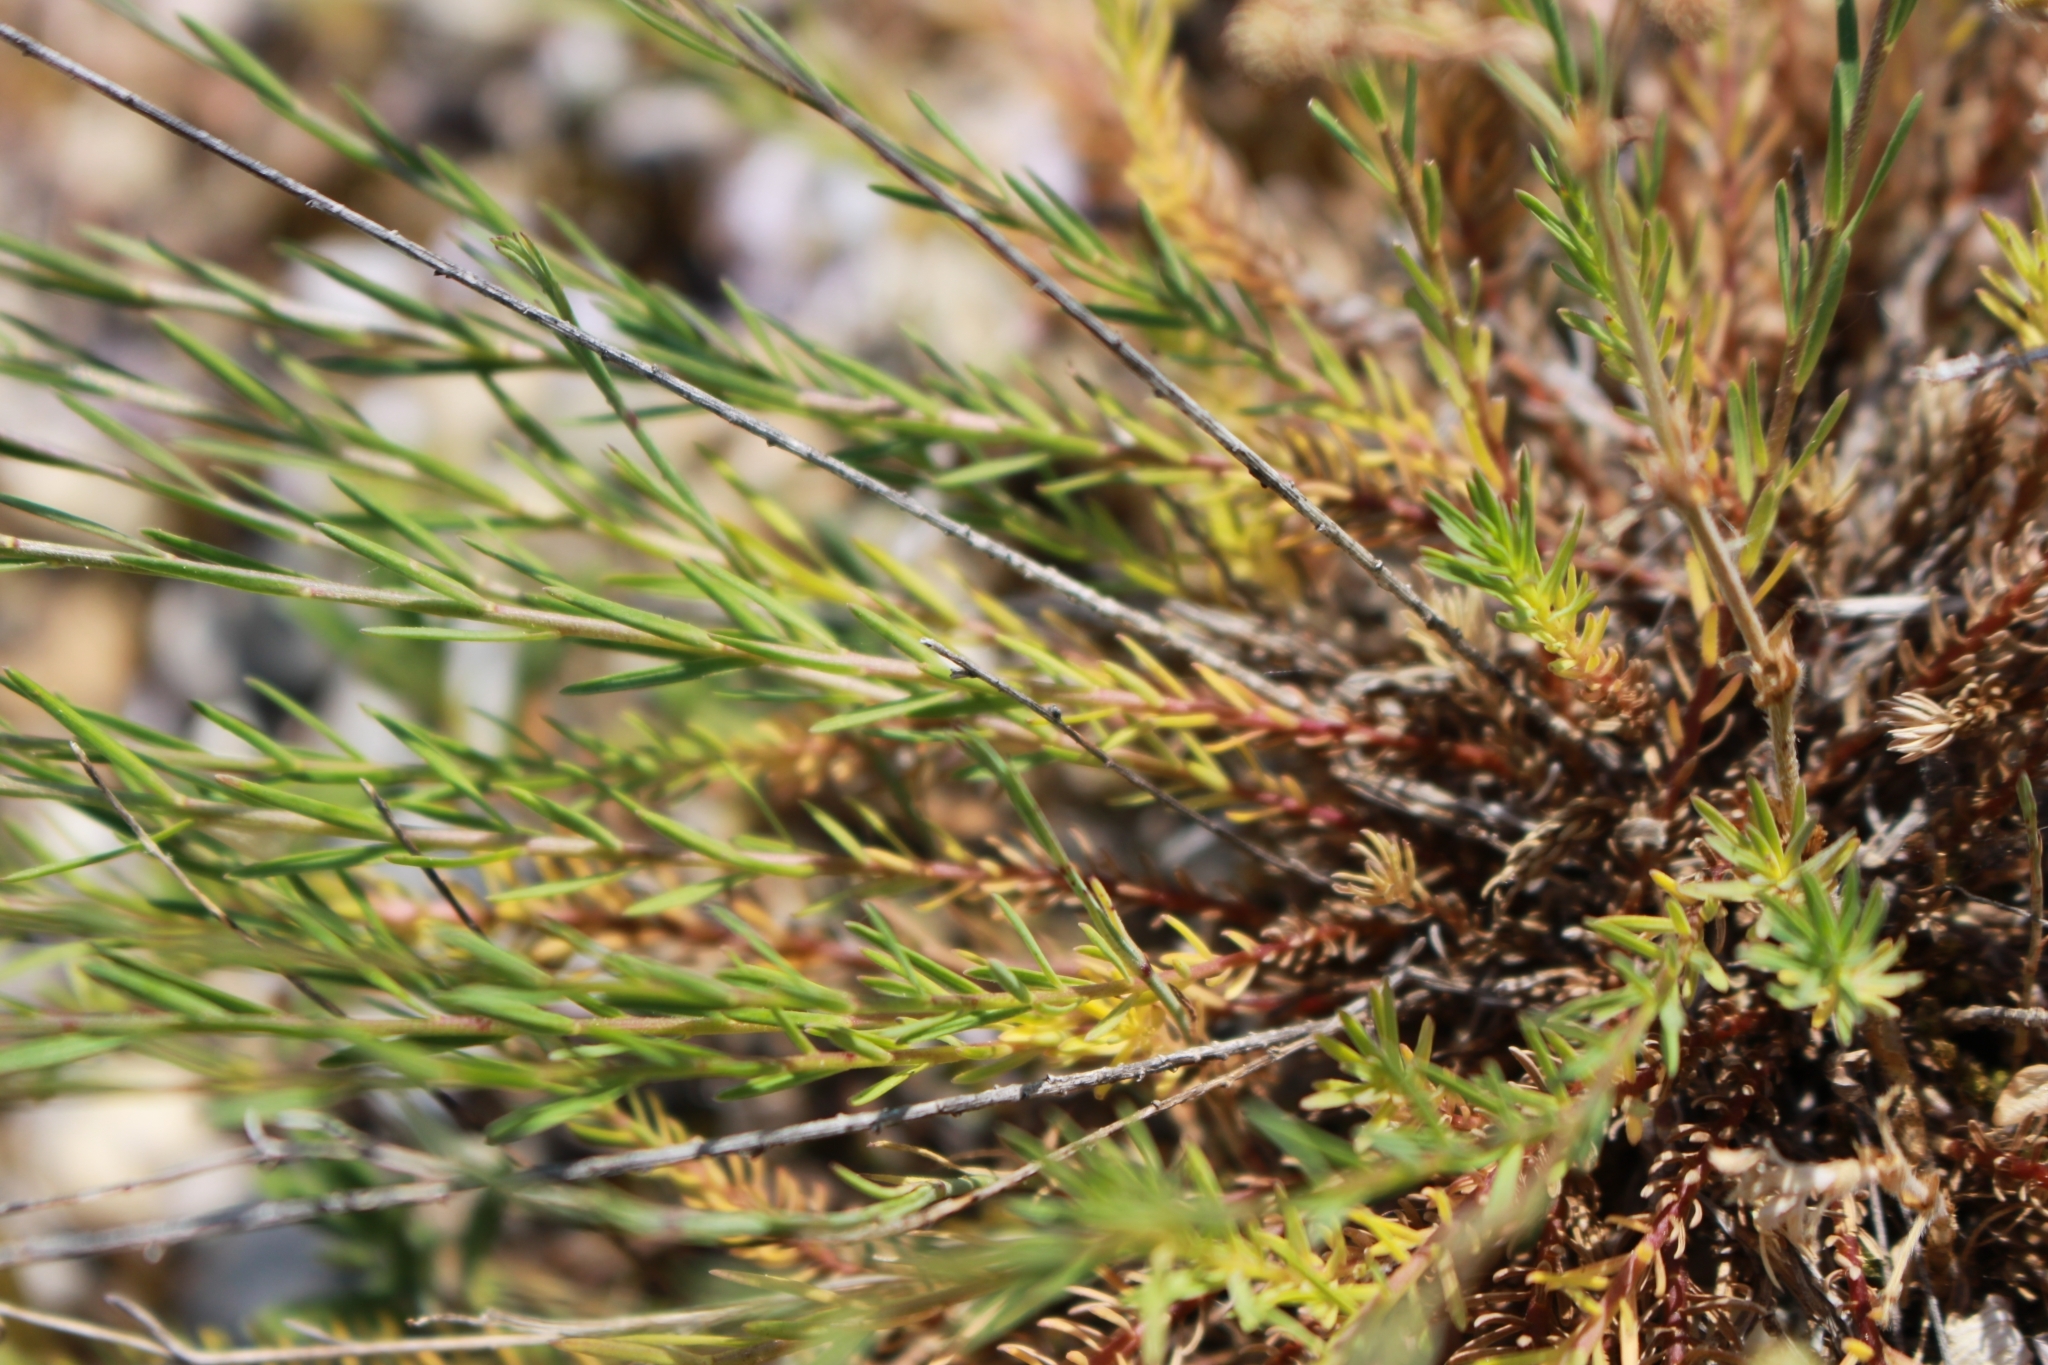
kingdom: Plantae
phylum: Tracheophyta
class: Magnoliopsida
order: Malpighiales
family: Linaceae
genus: Linum
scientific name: Linum tenuifolium
